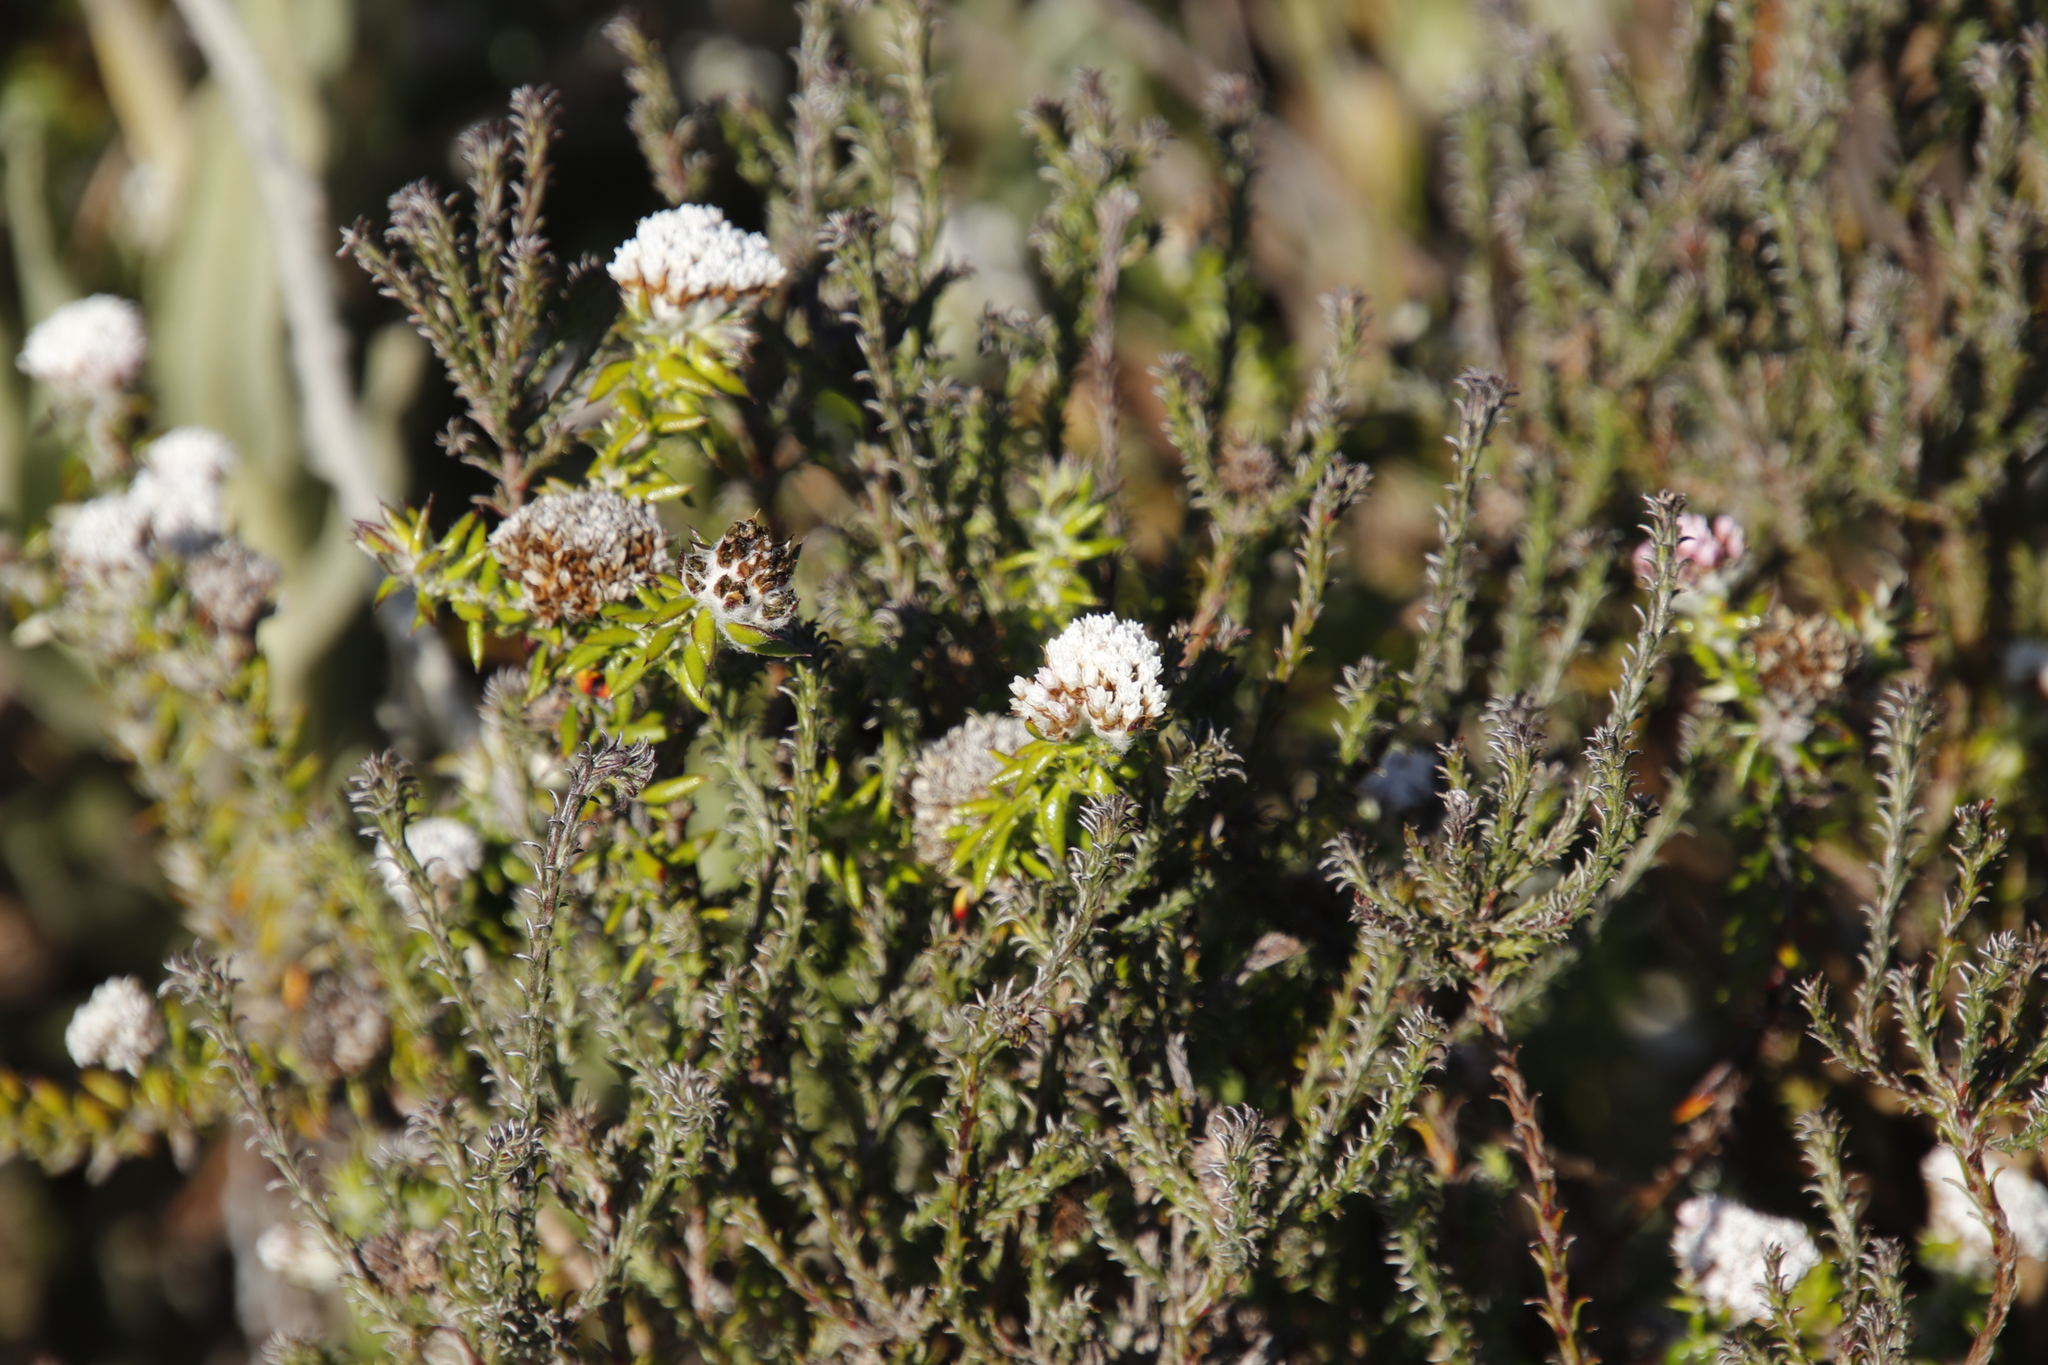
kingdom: Plantae
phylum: Tracheophyta
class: Magnoliopsida
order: Asterales
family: Asteraceae
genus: Seriphium
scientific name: Seriphium cinereum
